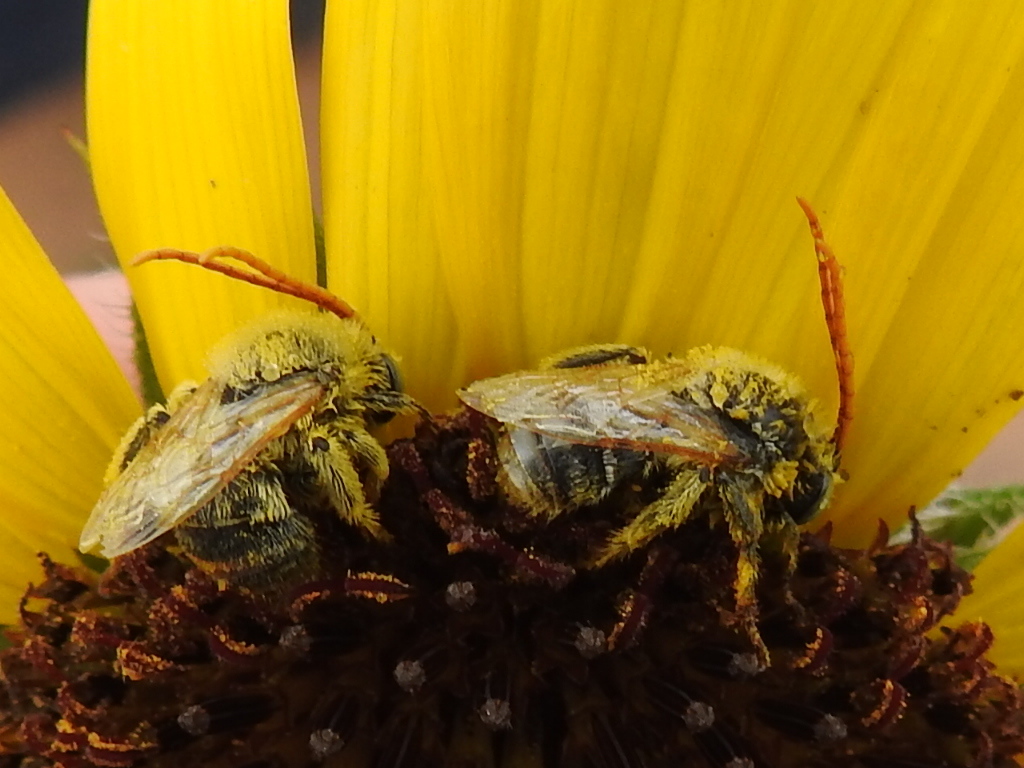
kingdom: Animalia
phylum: Arthropoda
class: Insecta
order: Hymenoptera
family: Apidae
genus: Melissodes
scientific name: Melissodes
